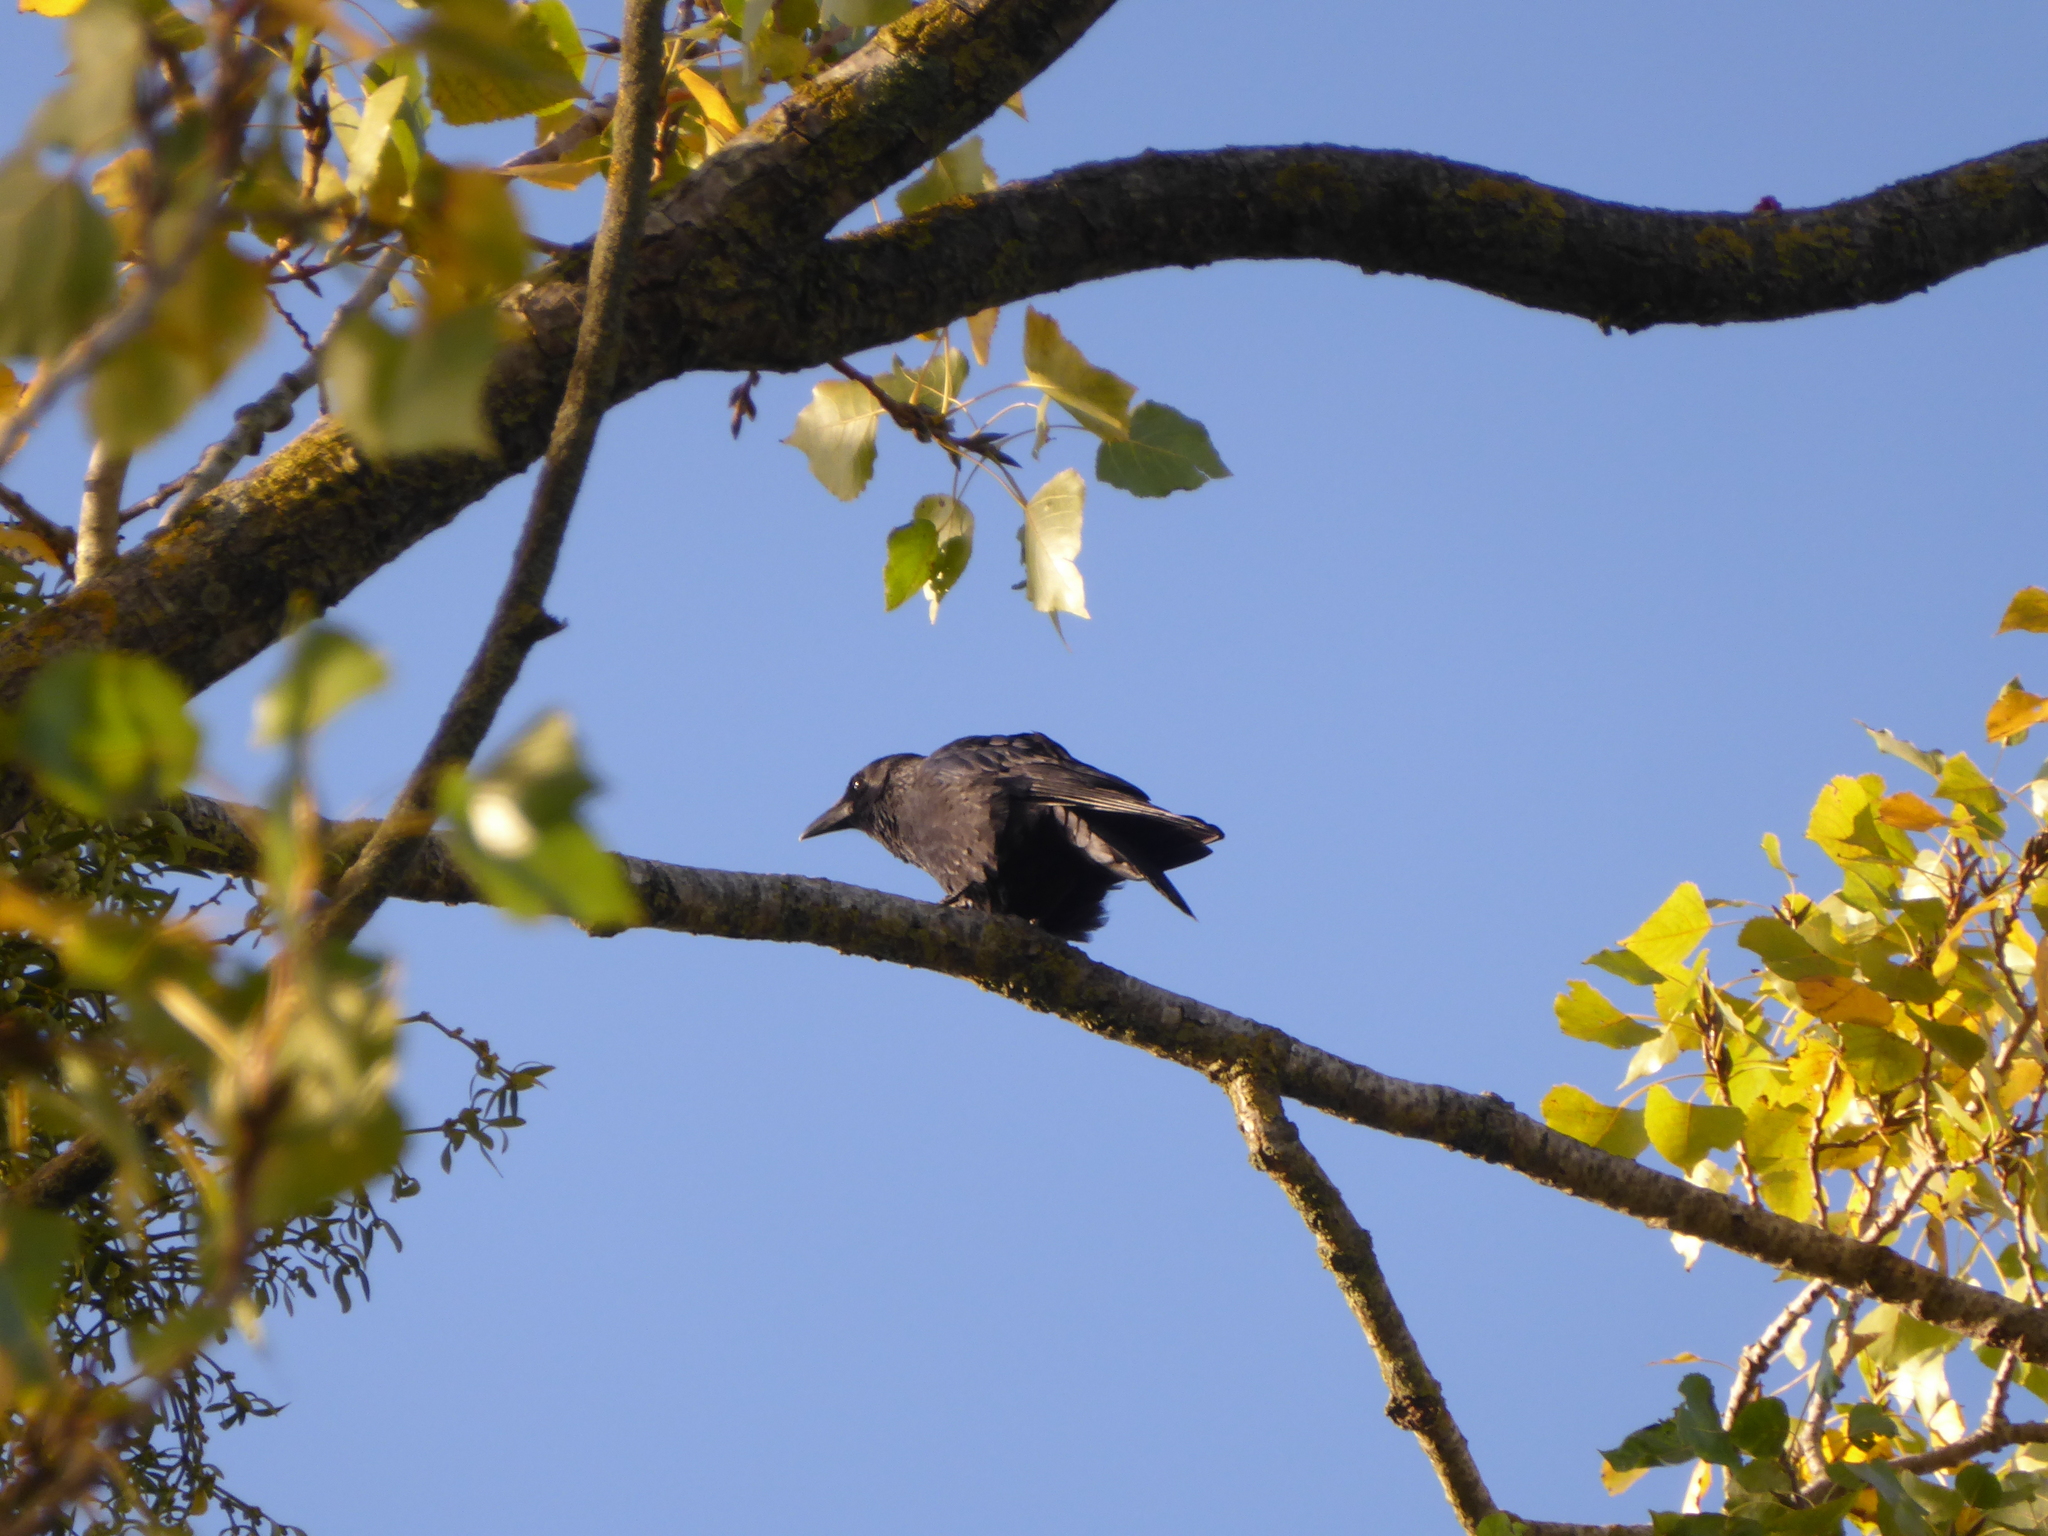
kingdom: Animalia
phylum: Chordata
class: Aves
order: Passeriformes
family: Corvidae
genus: Corvus
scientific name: Corvus corone
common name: Carrion crow
